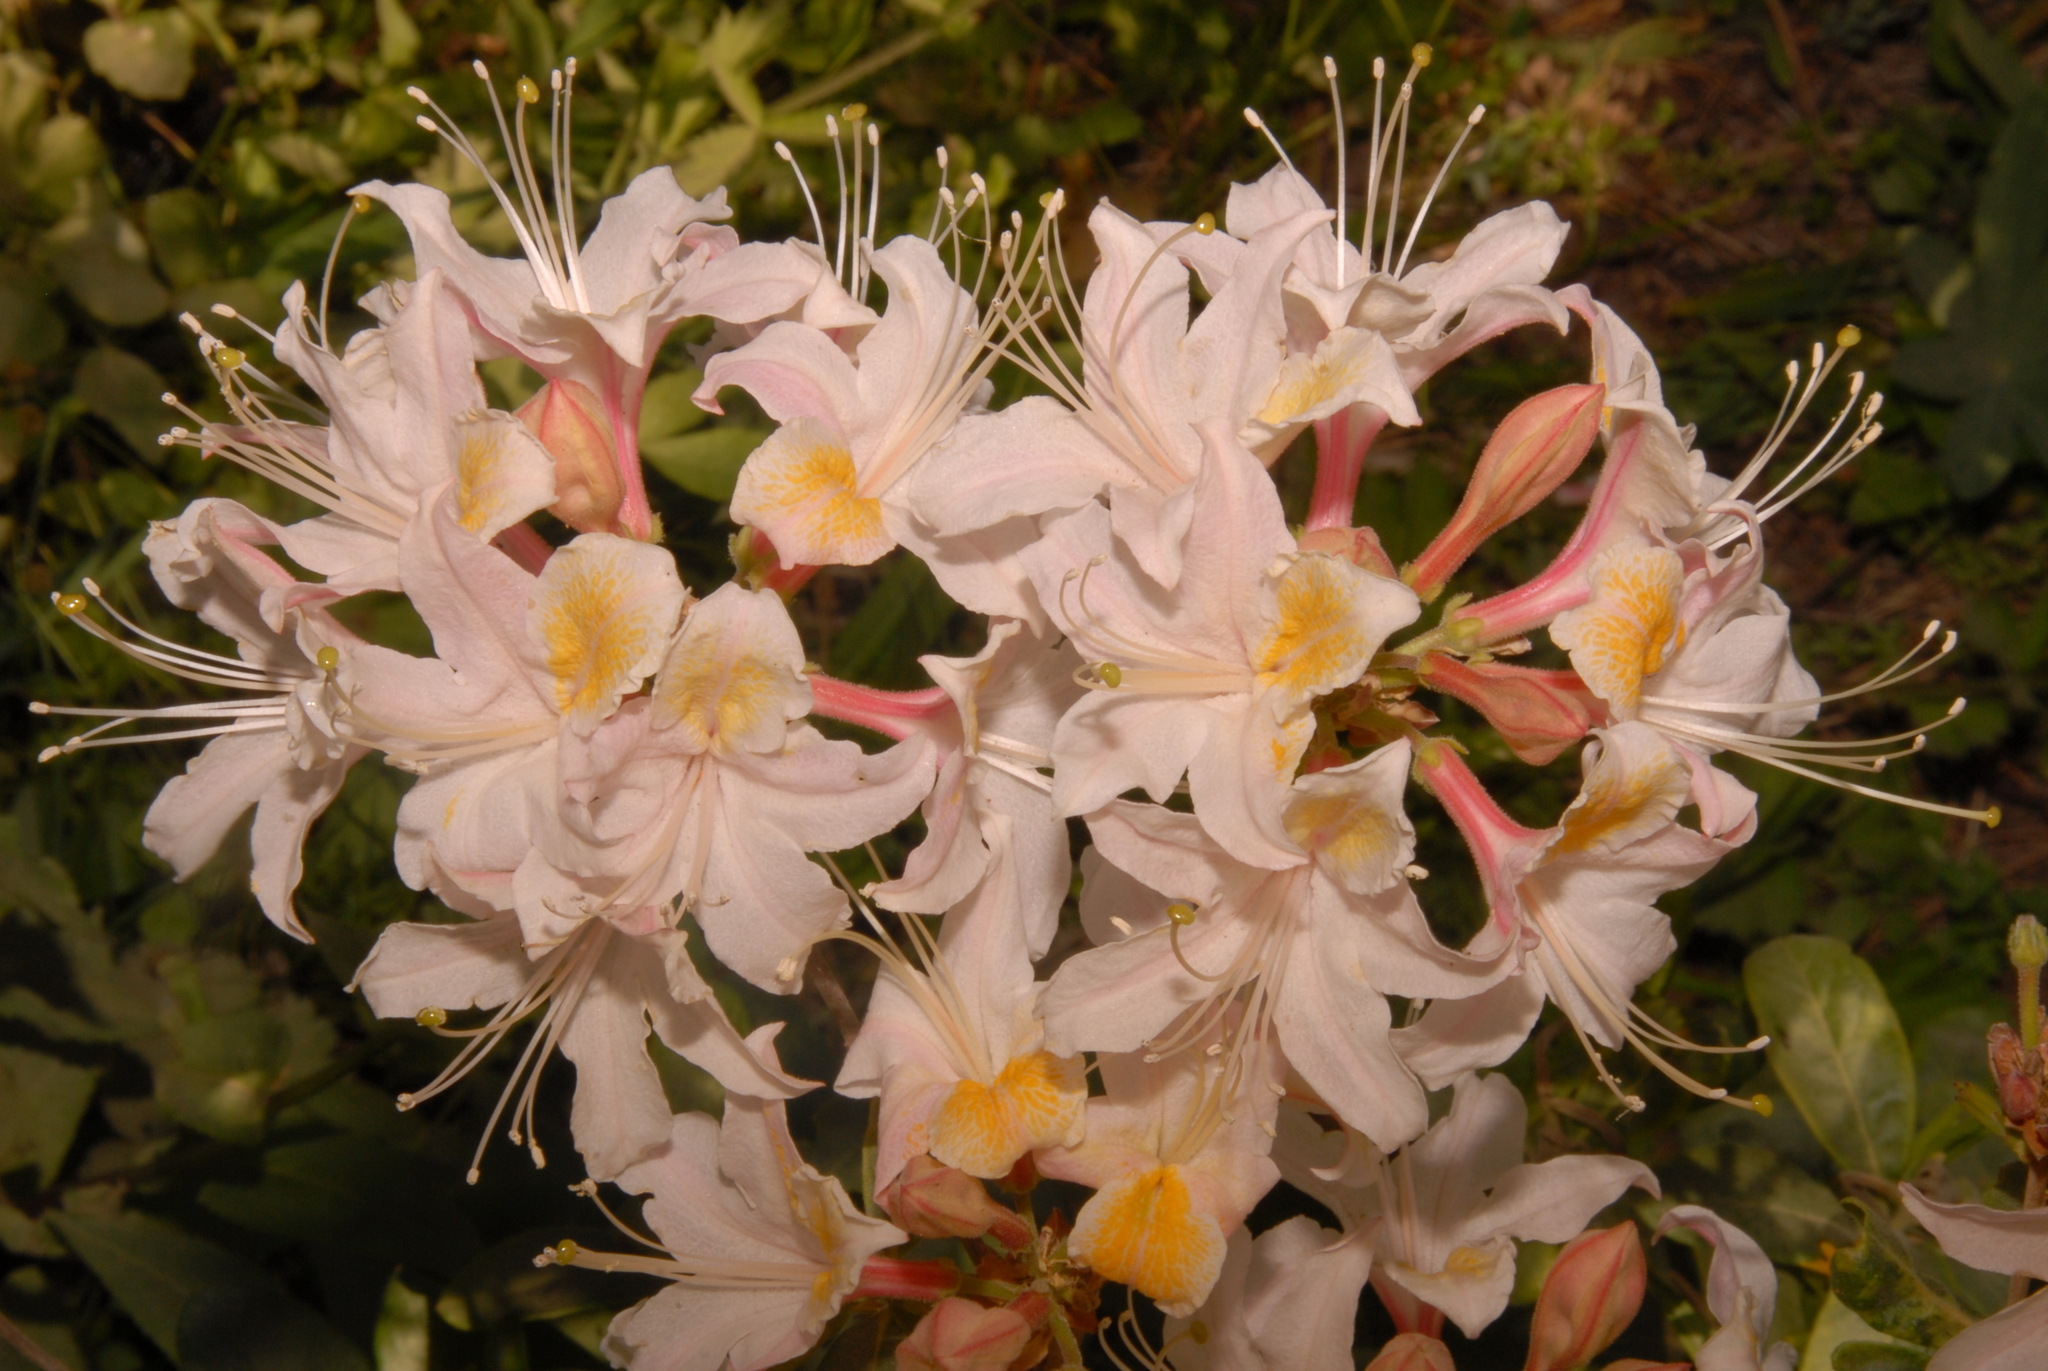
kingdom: Plantae
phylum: Tracheophyta
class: Magnoliopsida
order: Ericales
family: Ericaceae
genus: Rhododendron
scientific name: Rhododendron occidentale
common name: Western azalea
